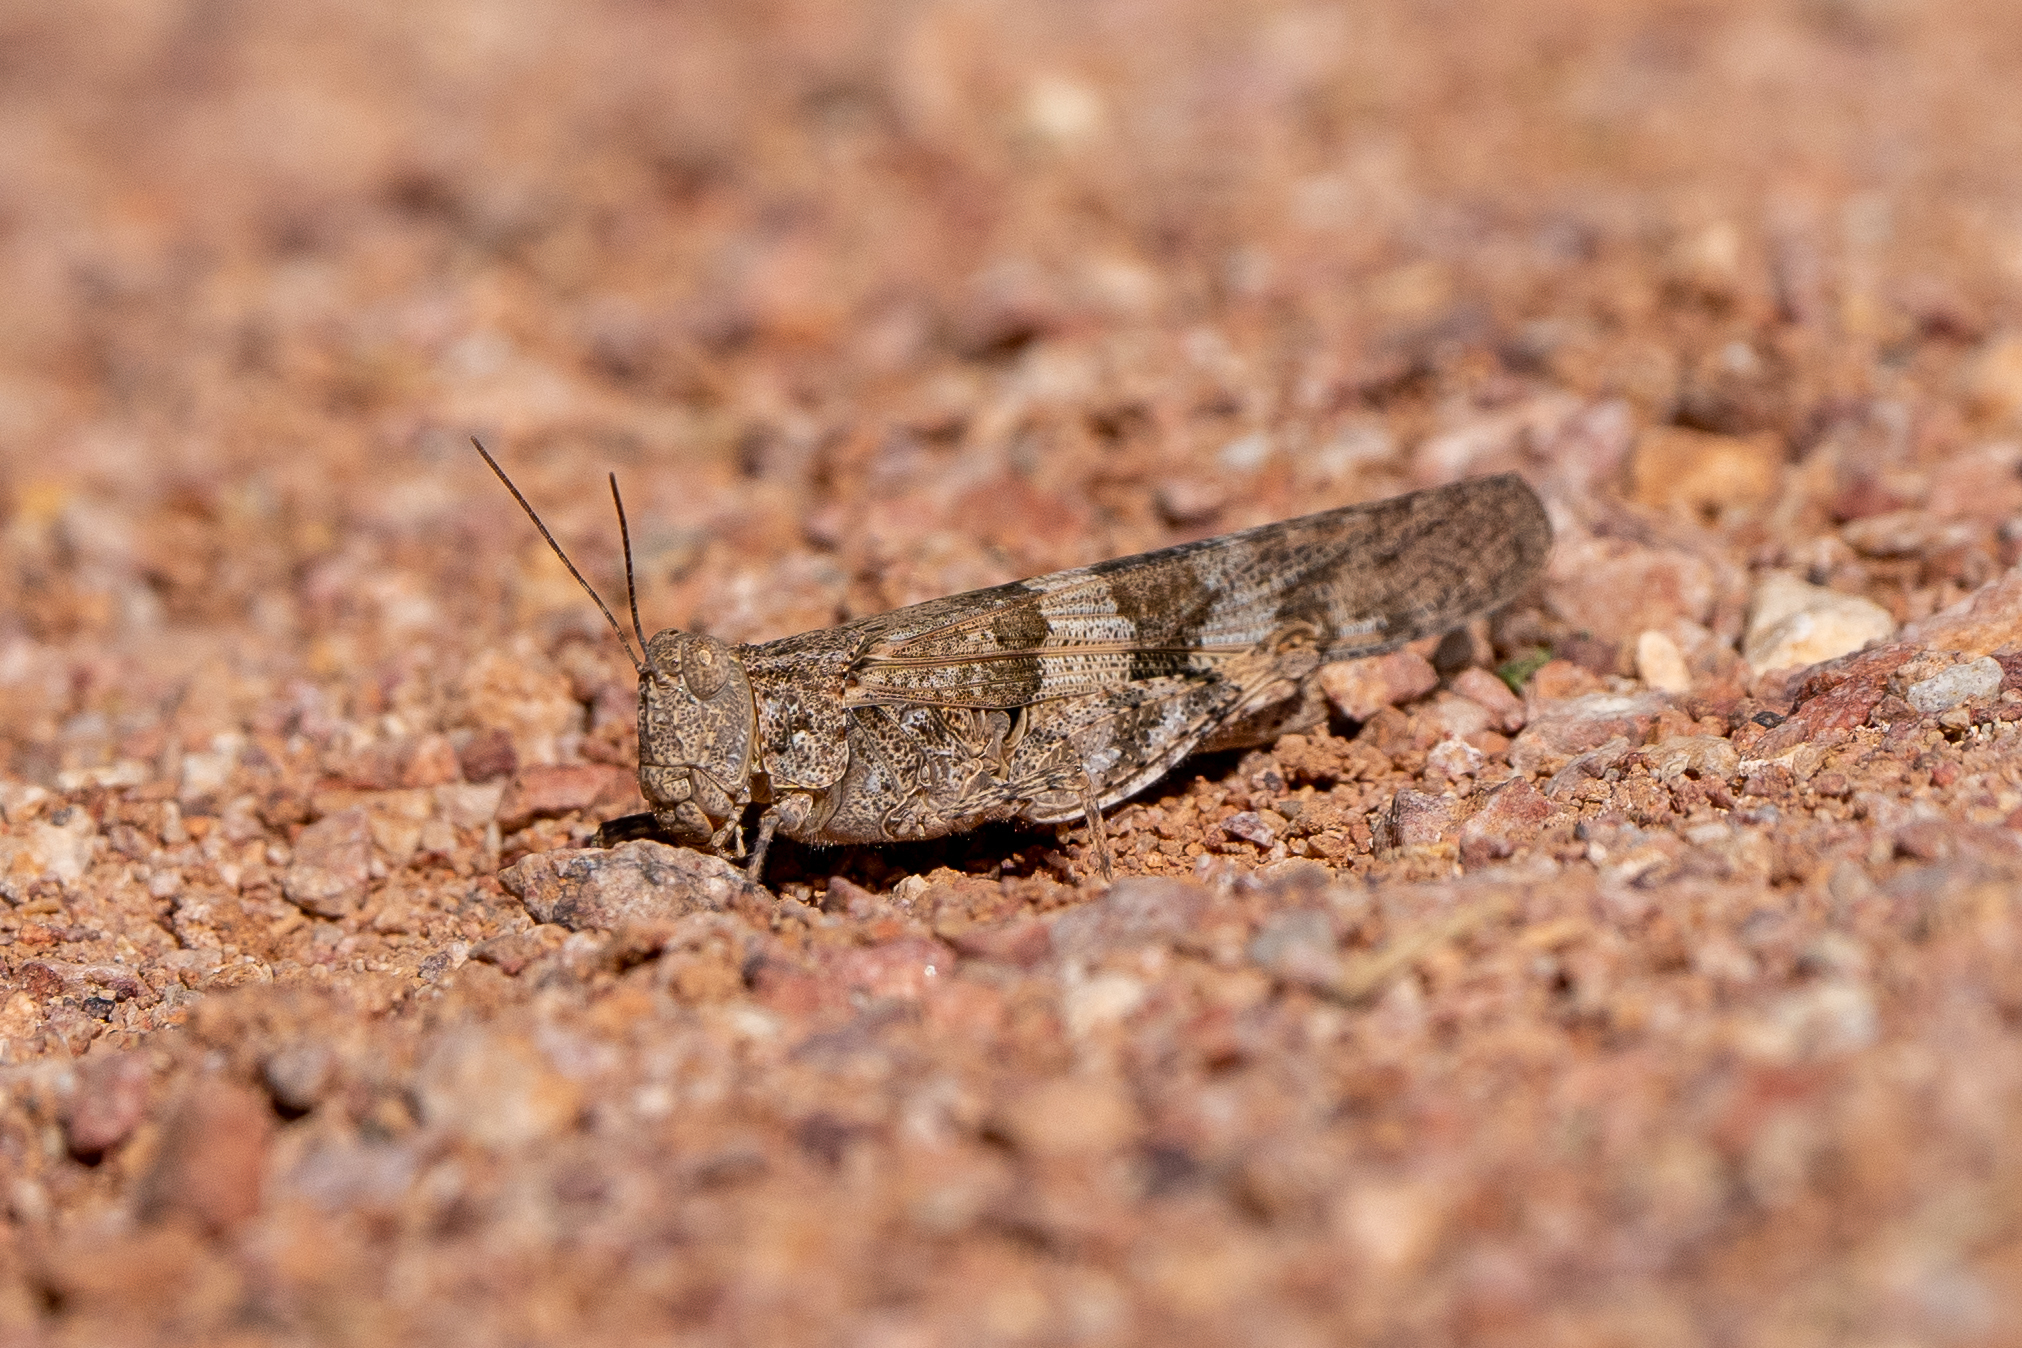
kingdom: Animalia
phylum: Arthropoda
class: Insecta
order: Orthoptera
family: Acrididae
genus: Trimerotropis
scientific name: Trimerotropis pallidipennis
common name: Pallid-winged grasshopper
